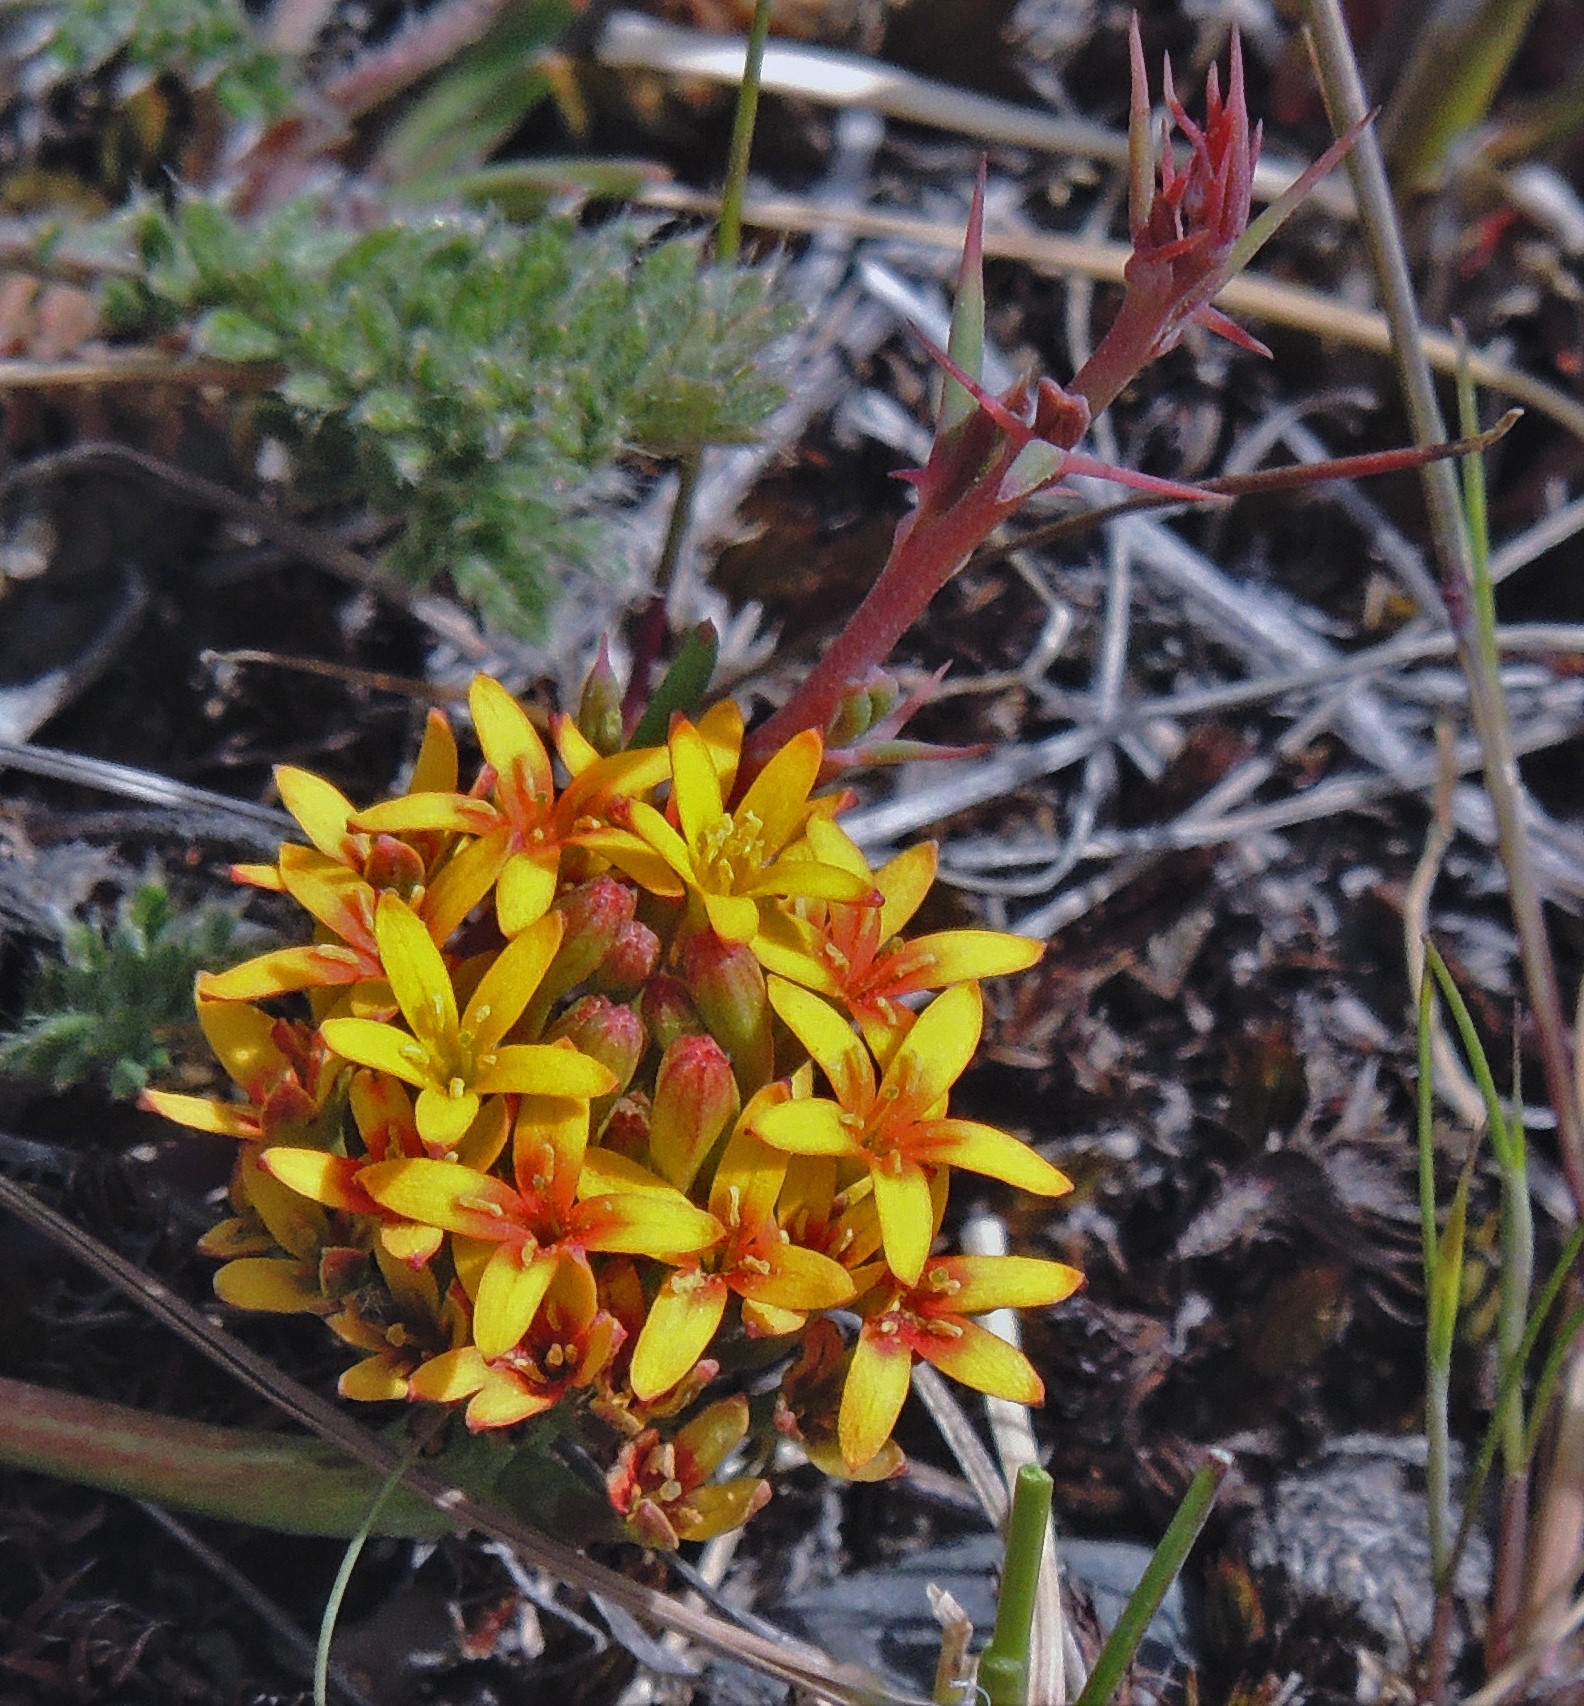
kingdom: Plantae
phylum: Tracheophyta
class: Magnoliopsida
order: Santalales
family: Schoepfiaceae
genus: Quinchamalium
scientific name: Quinchamalium chilense
